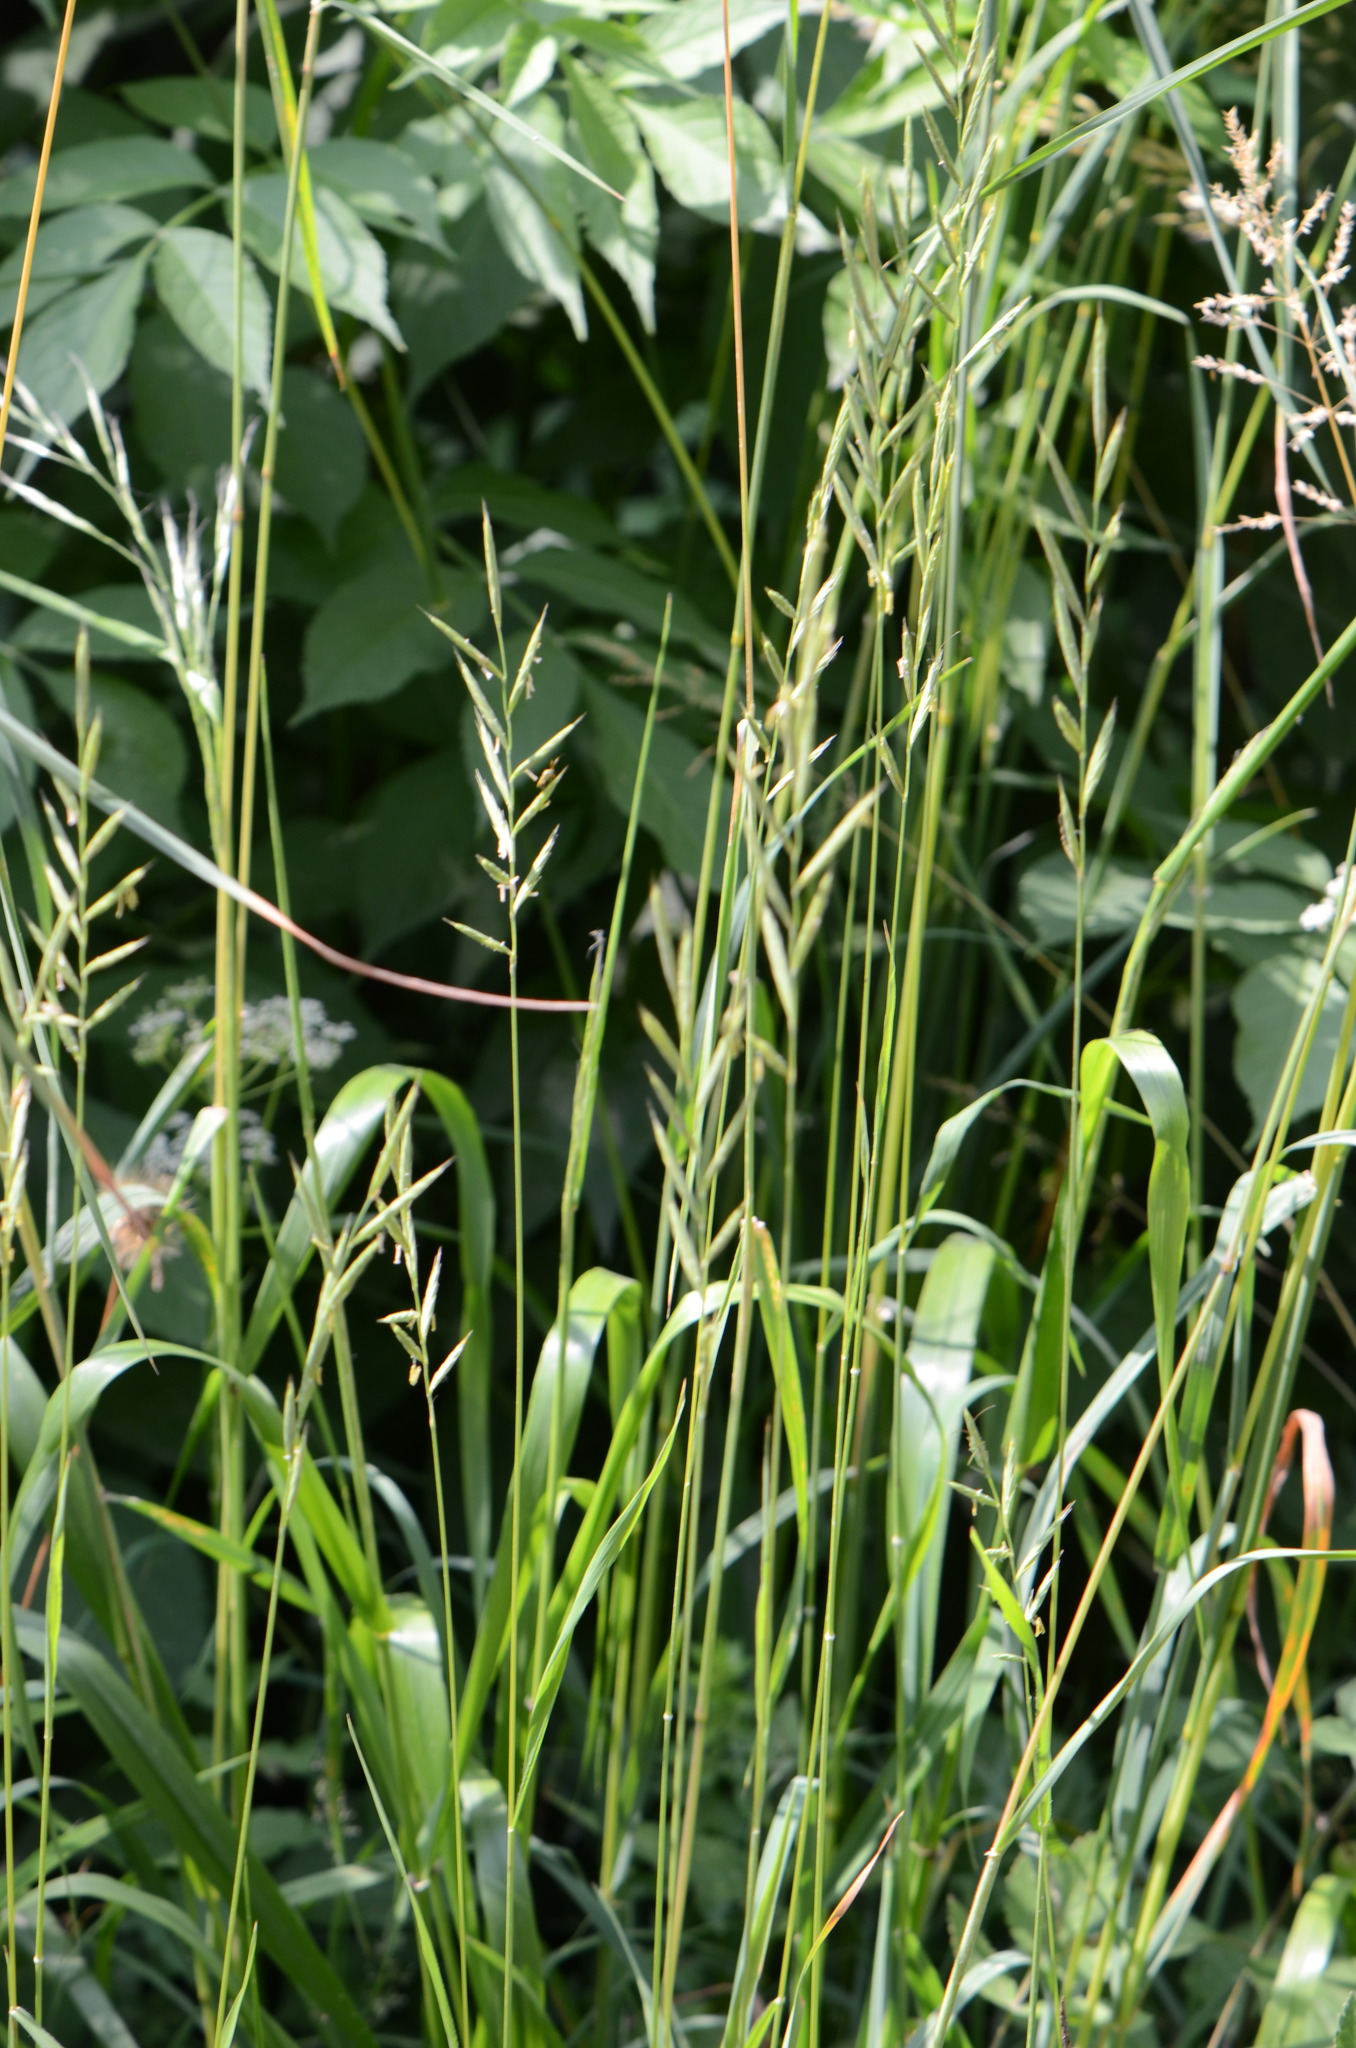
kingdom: Plantae
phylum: Tracheophyta
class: Liliopsida
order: Poales
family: Poaceae
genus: Brachypodium
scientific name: Brachypodium pinnatum
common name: Tor grass
